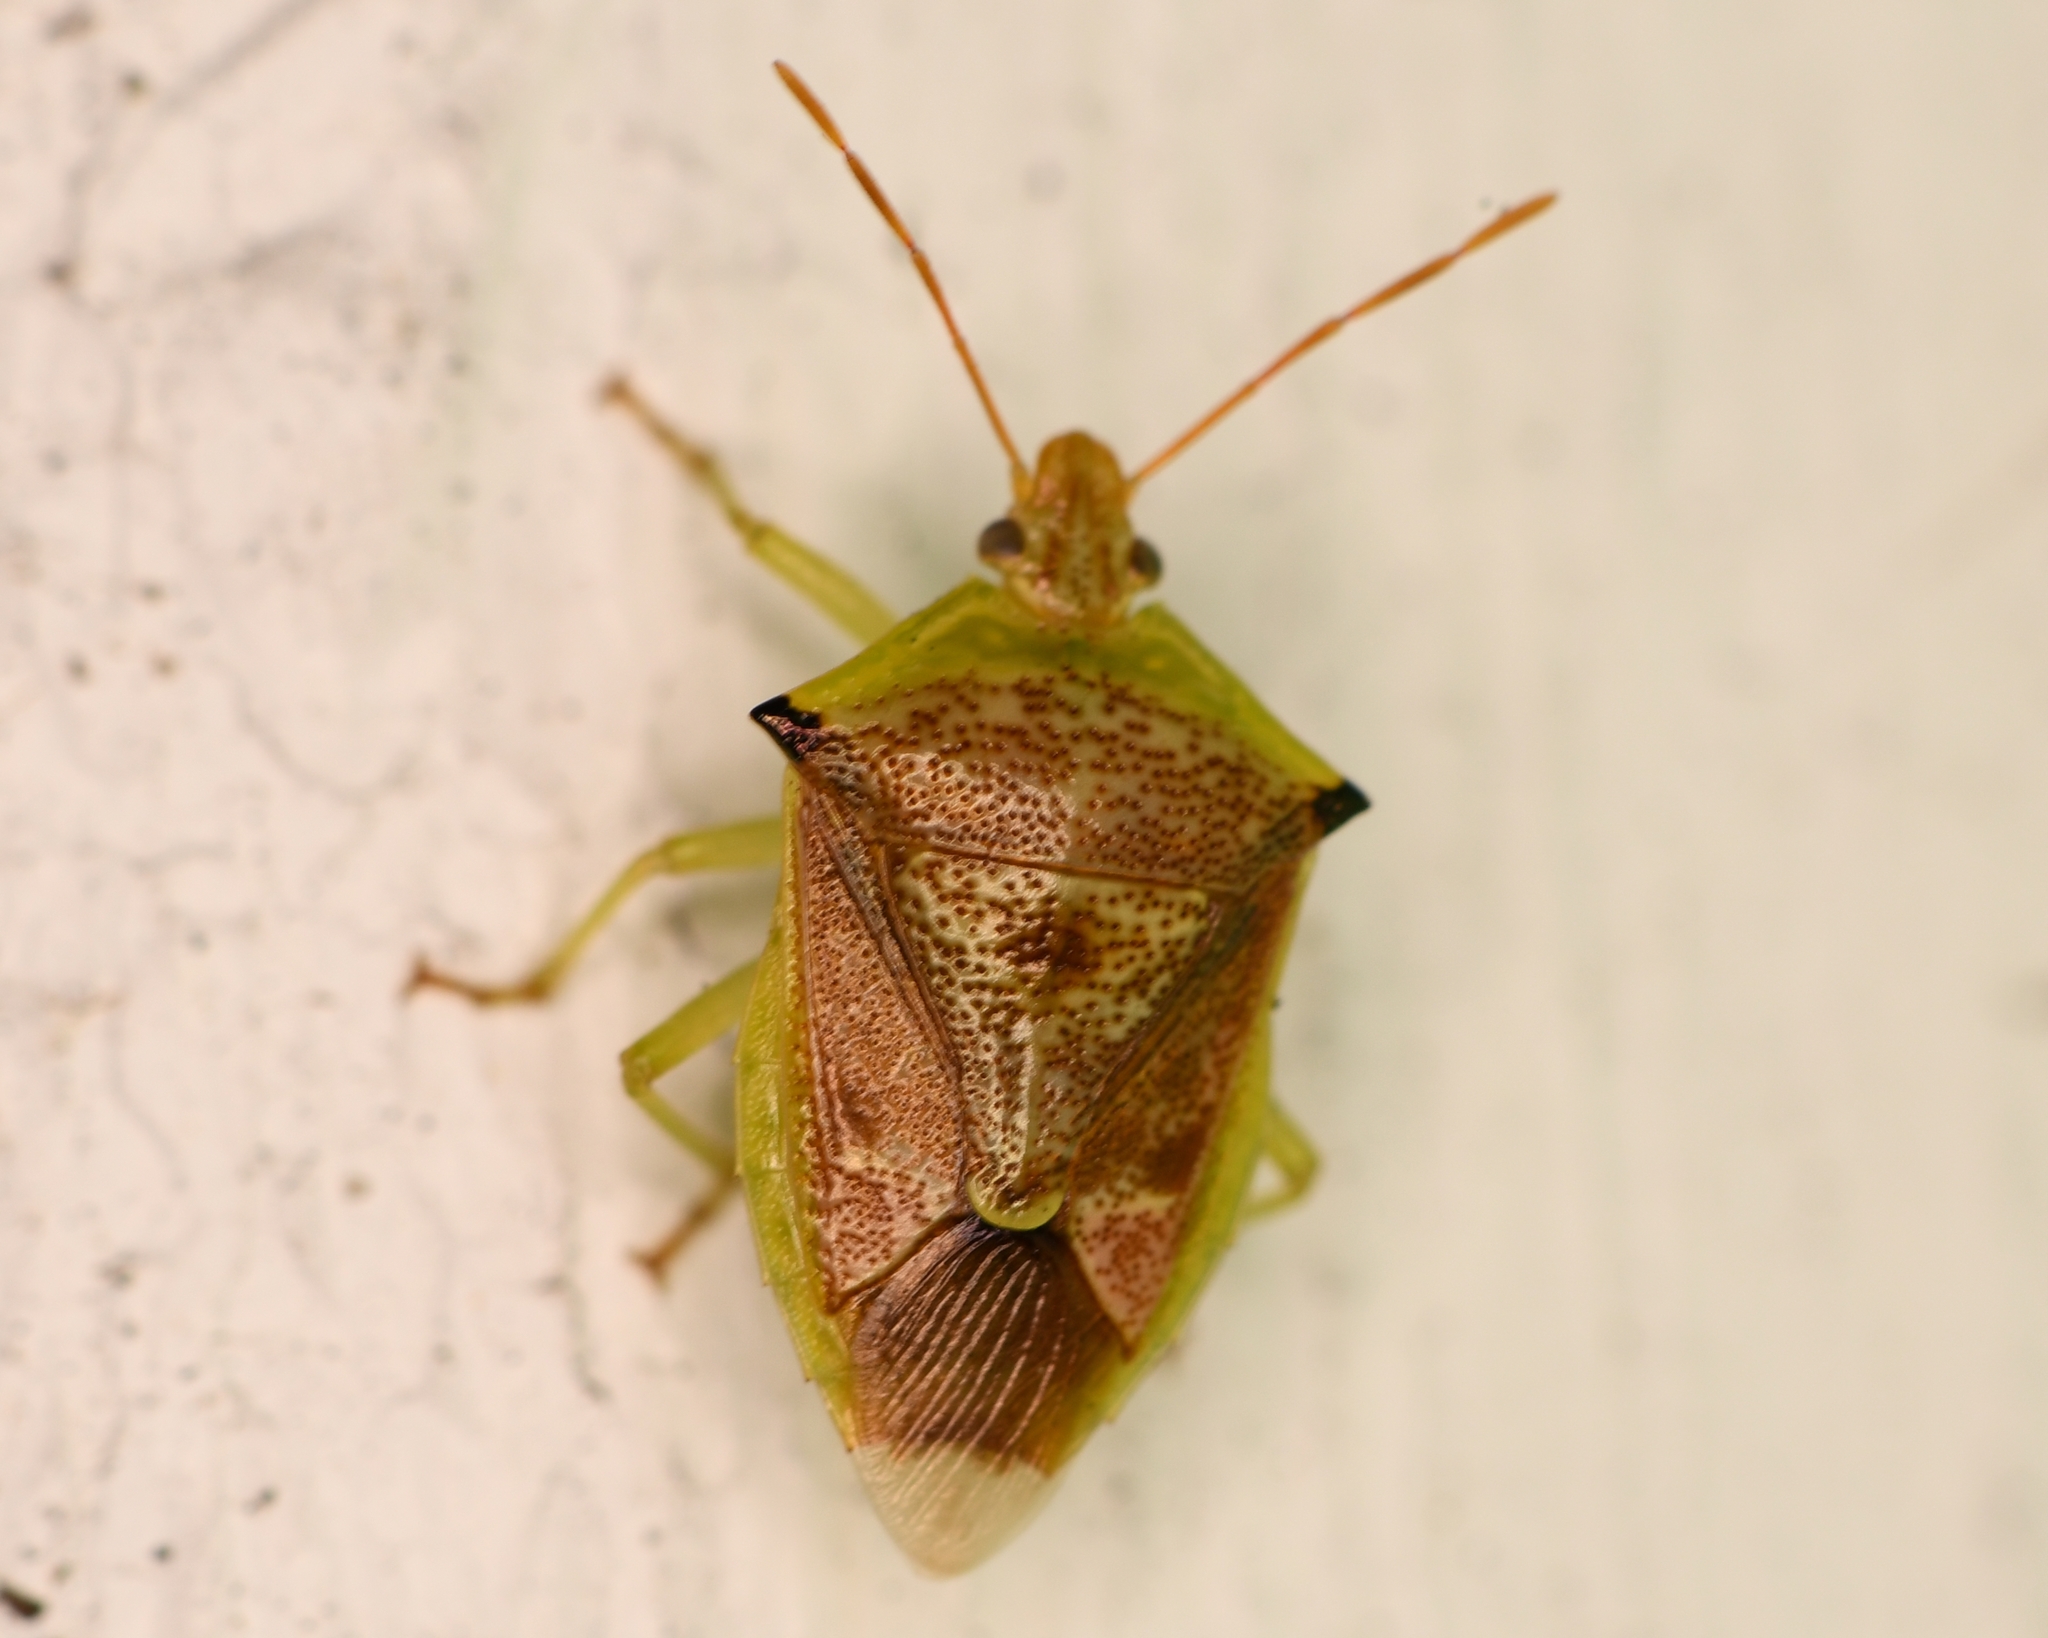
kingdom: Animalia
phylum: Arthropoda
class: Insecta
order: Hemiptera
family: Pentatomidae
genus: Tyrannocoris
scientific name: Tyrannocoris jole
